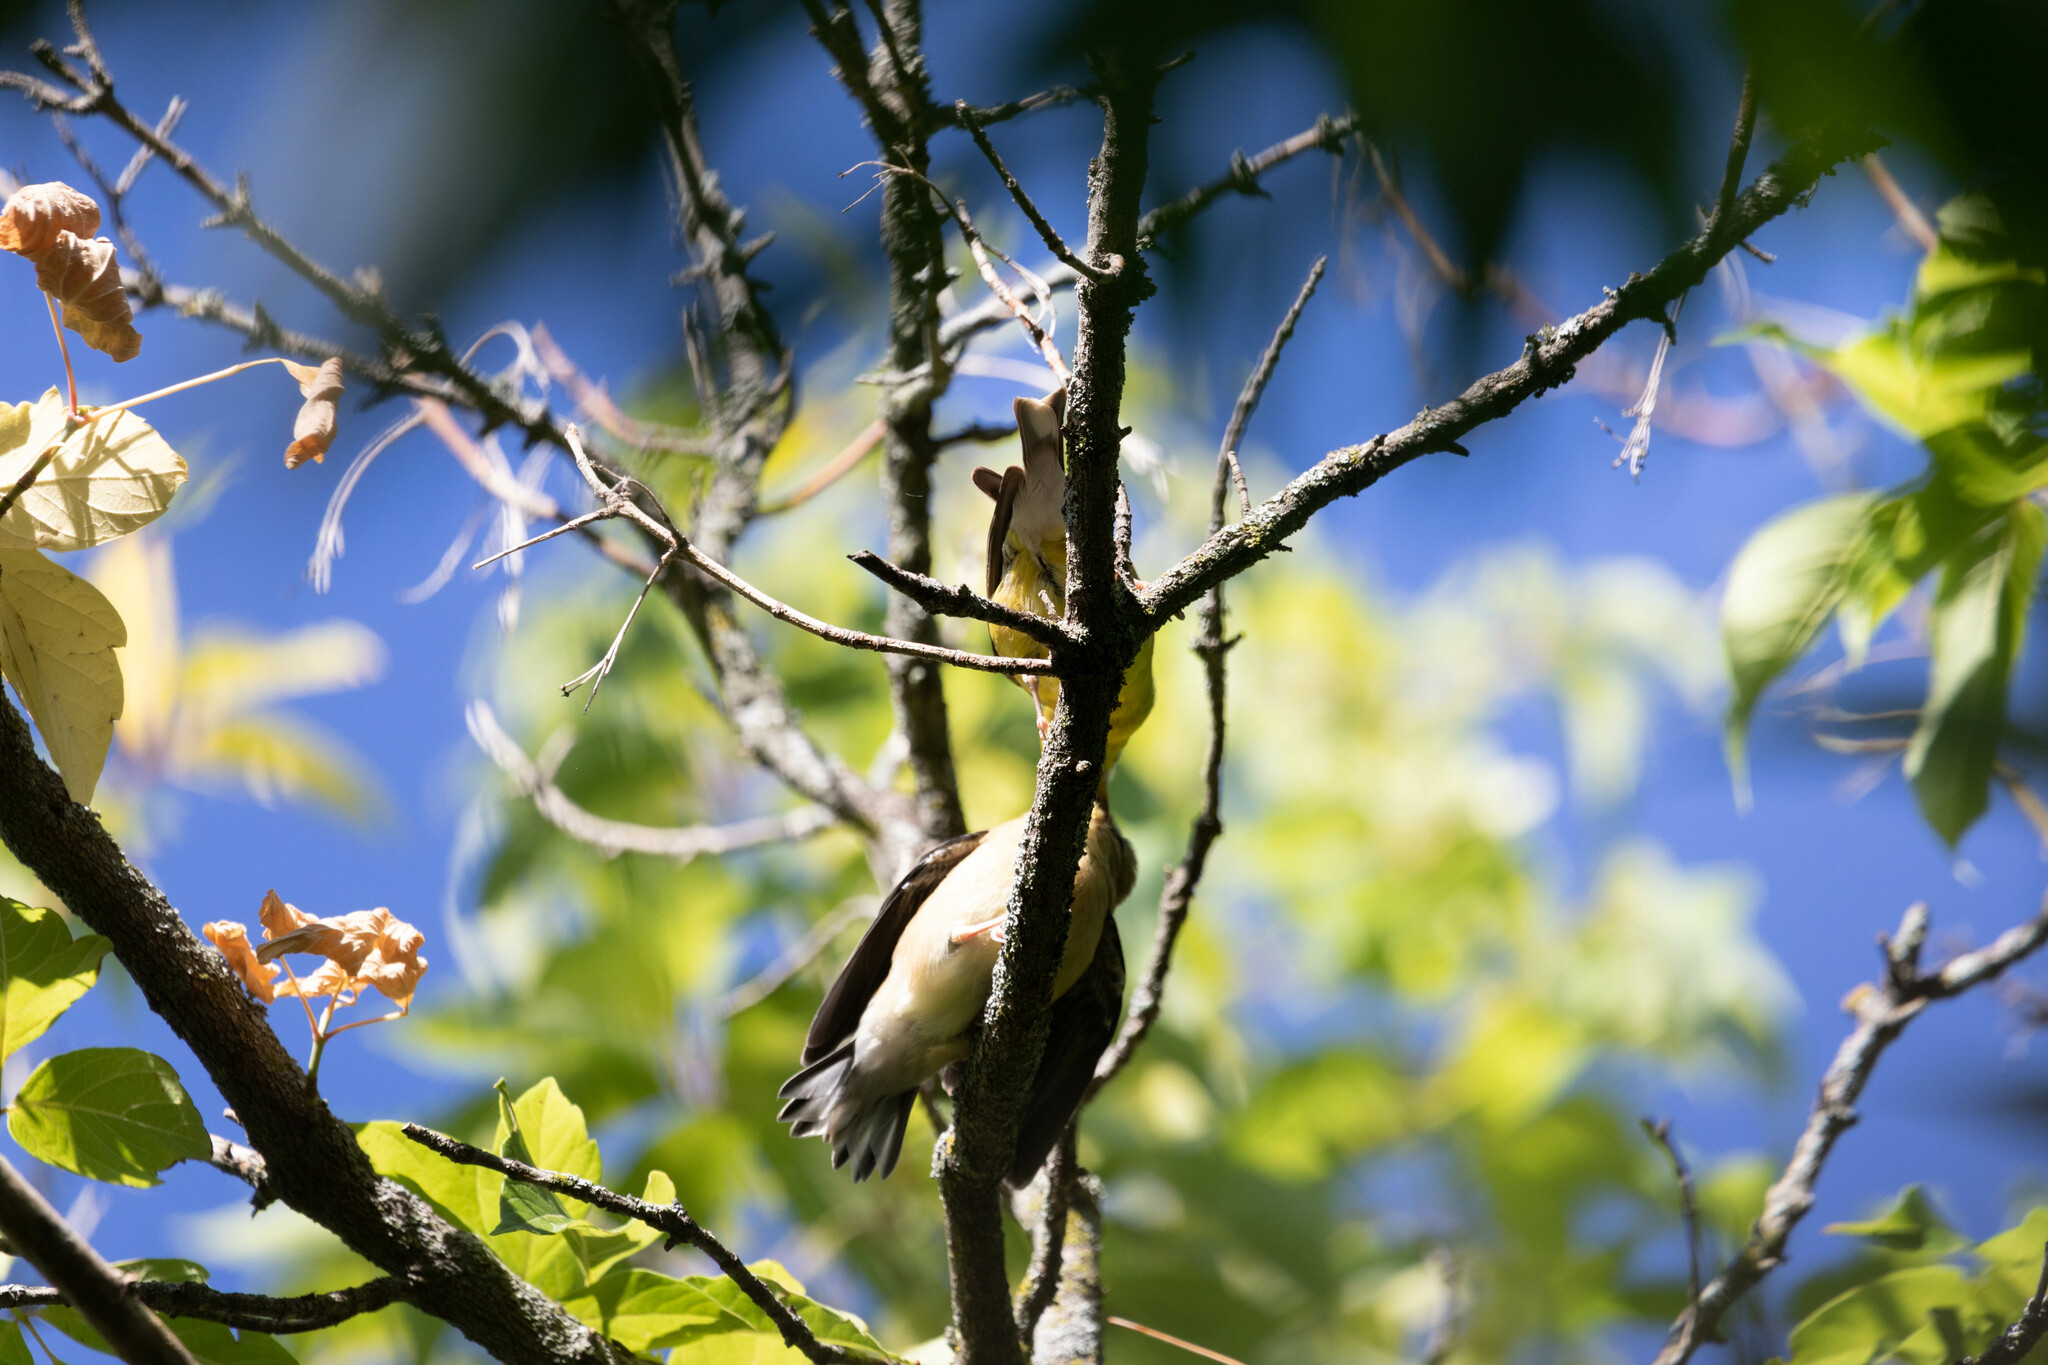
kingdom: Animalia
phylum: Chordata
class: Aves
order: Passeriformes
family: Fringillidae
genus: Spinus
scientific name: Spinus tristis
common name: American goldfinch
